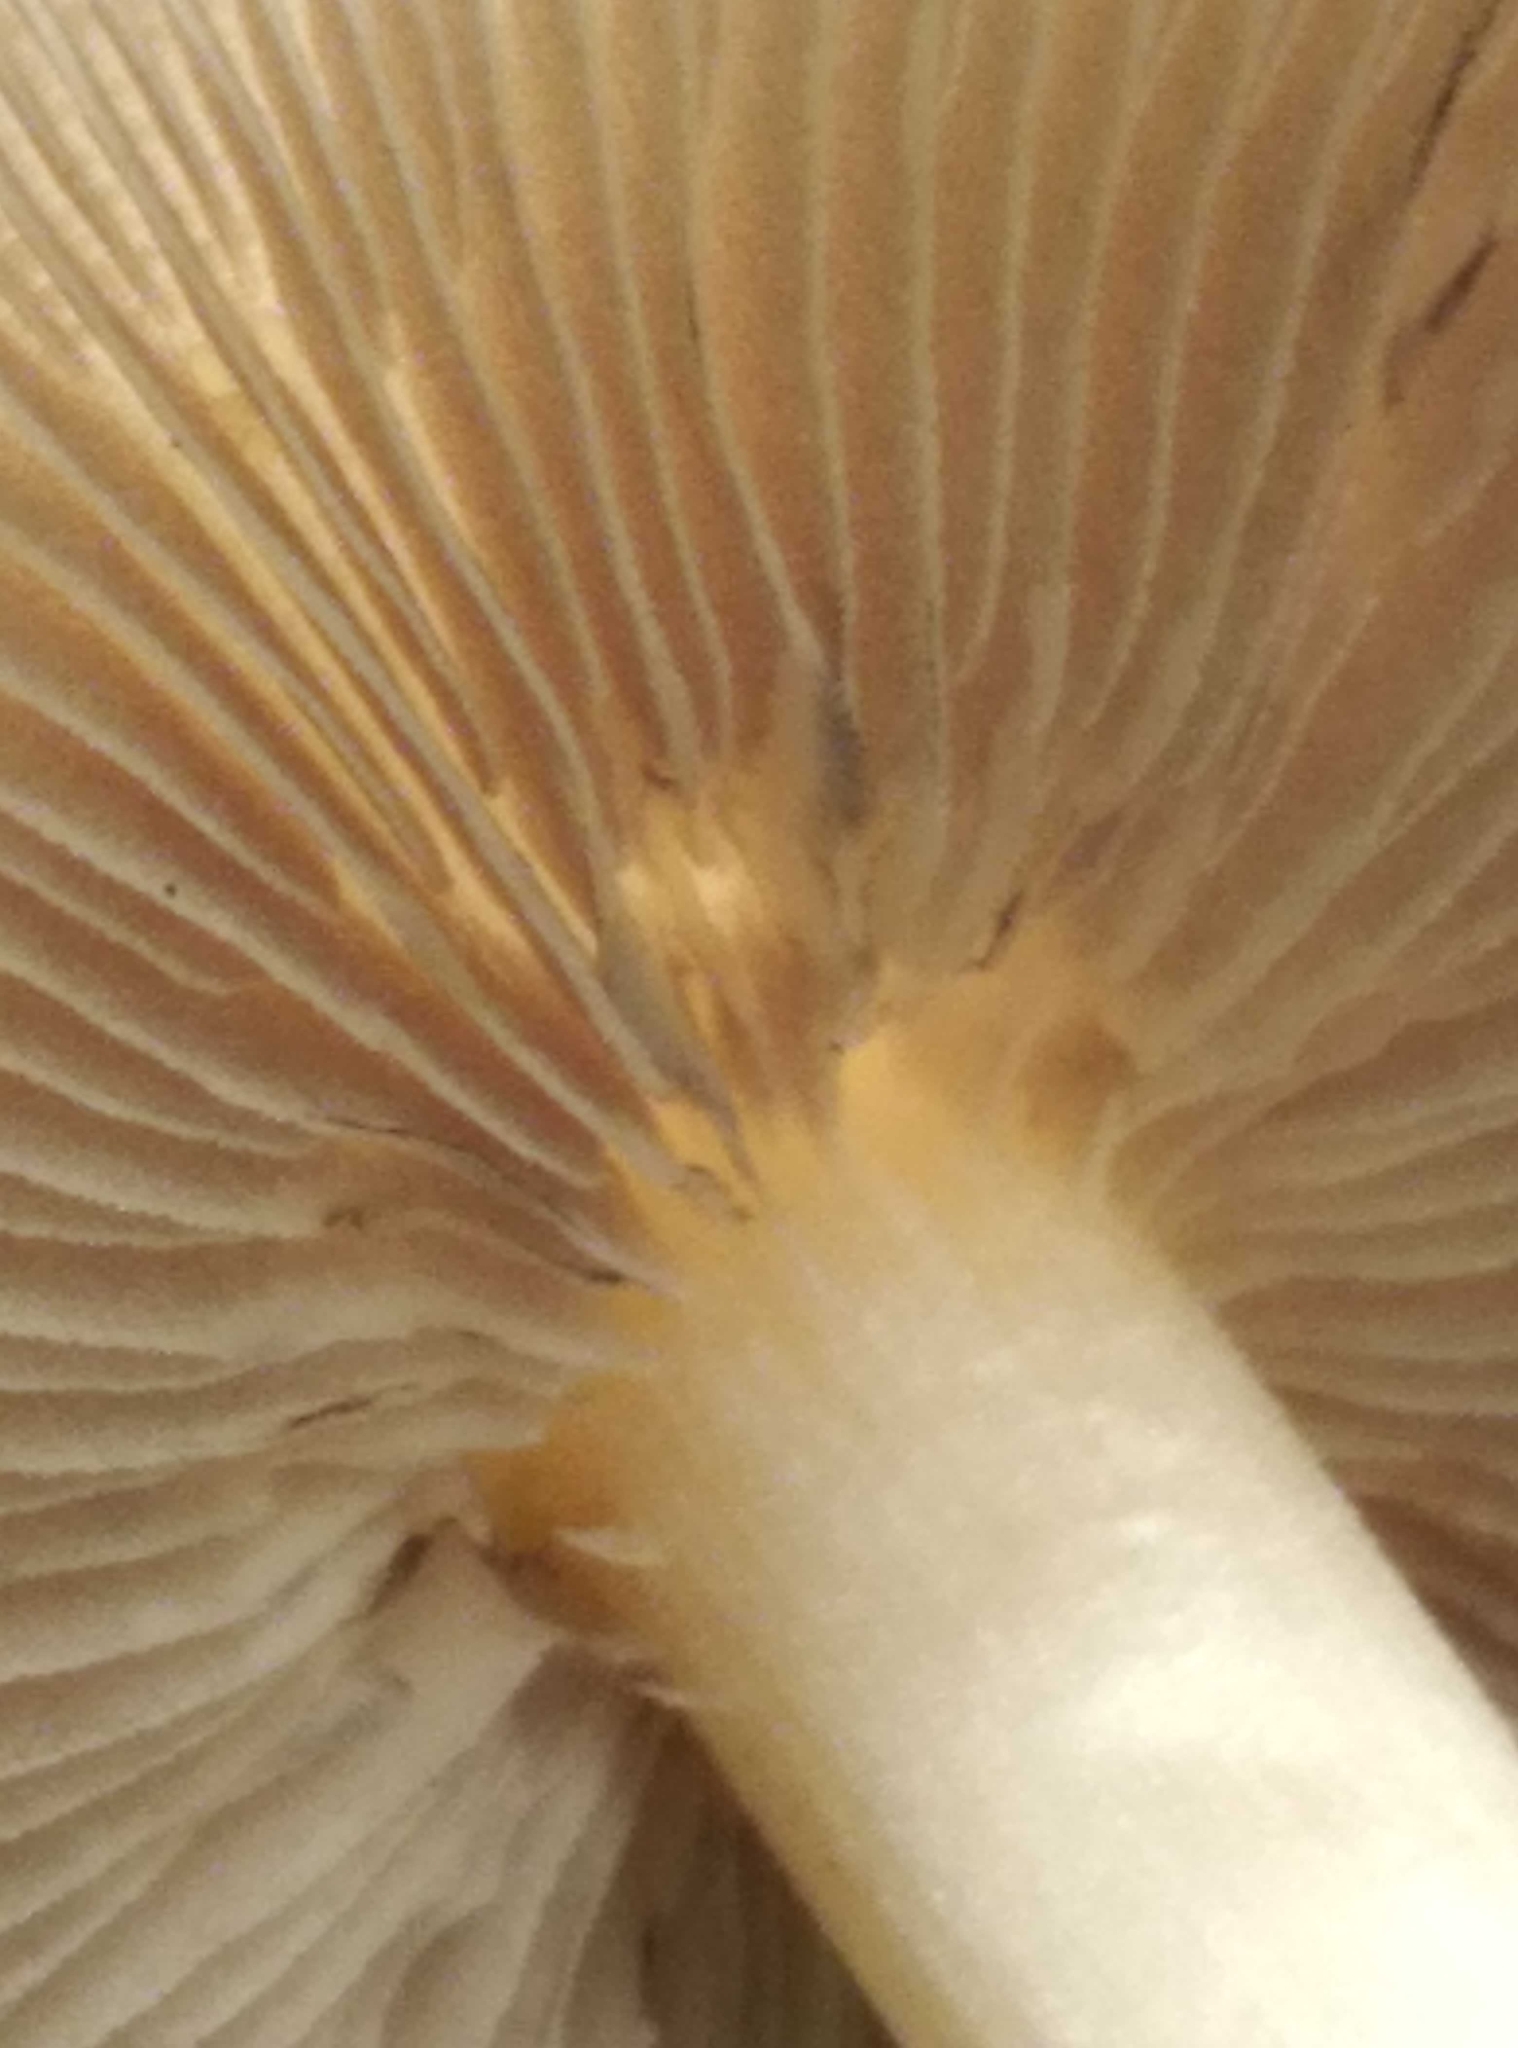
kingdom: Fungi
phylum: Basidiomycota
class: Agaricomycetes
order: Agaricales
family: Psathyrellaceae
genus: Candolleomyces
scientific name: Candolleomyces candolleanus
